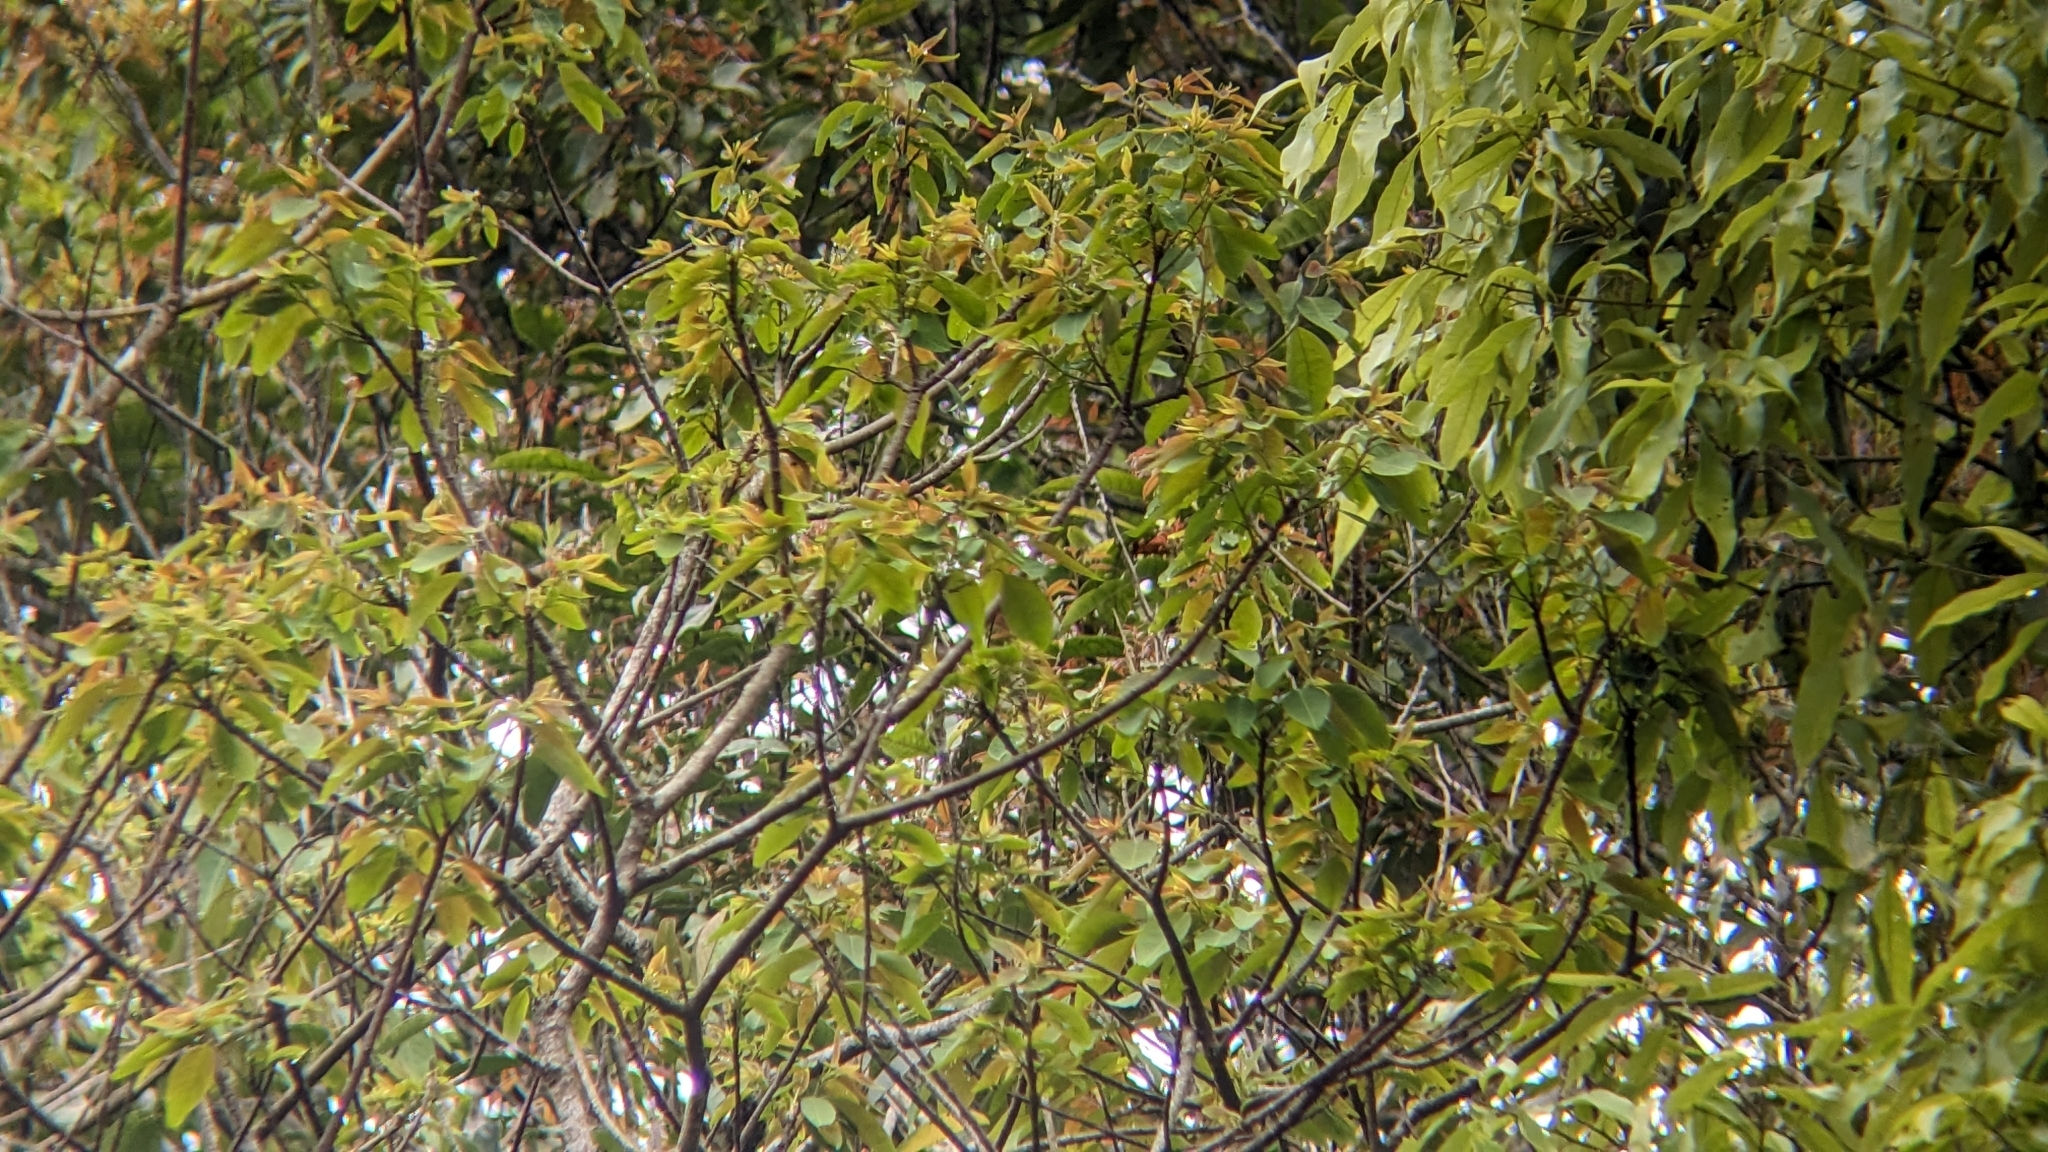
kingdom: Plantae
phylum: Tracheophyta
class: Magnoliopsida
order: Malpighiales
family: Euphorbiaceae
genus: Triadica
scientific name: Triadica cochinchinensis
